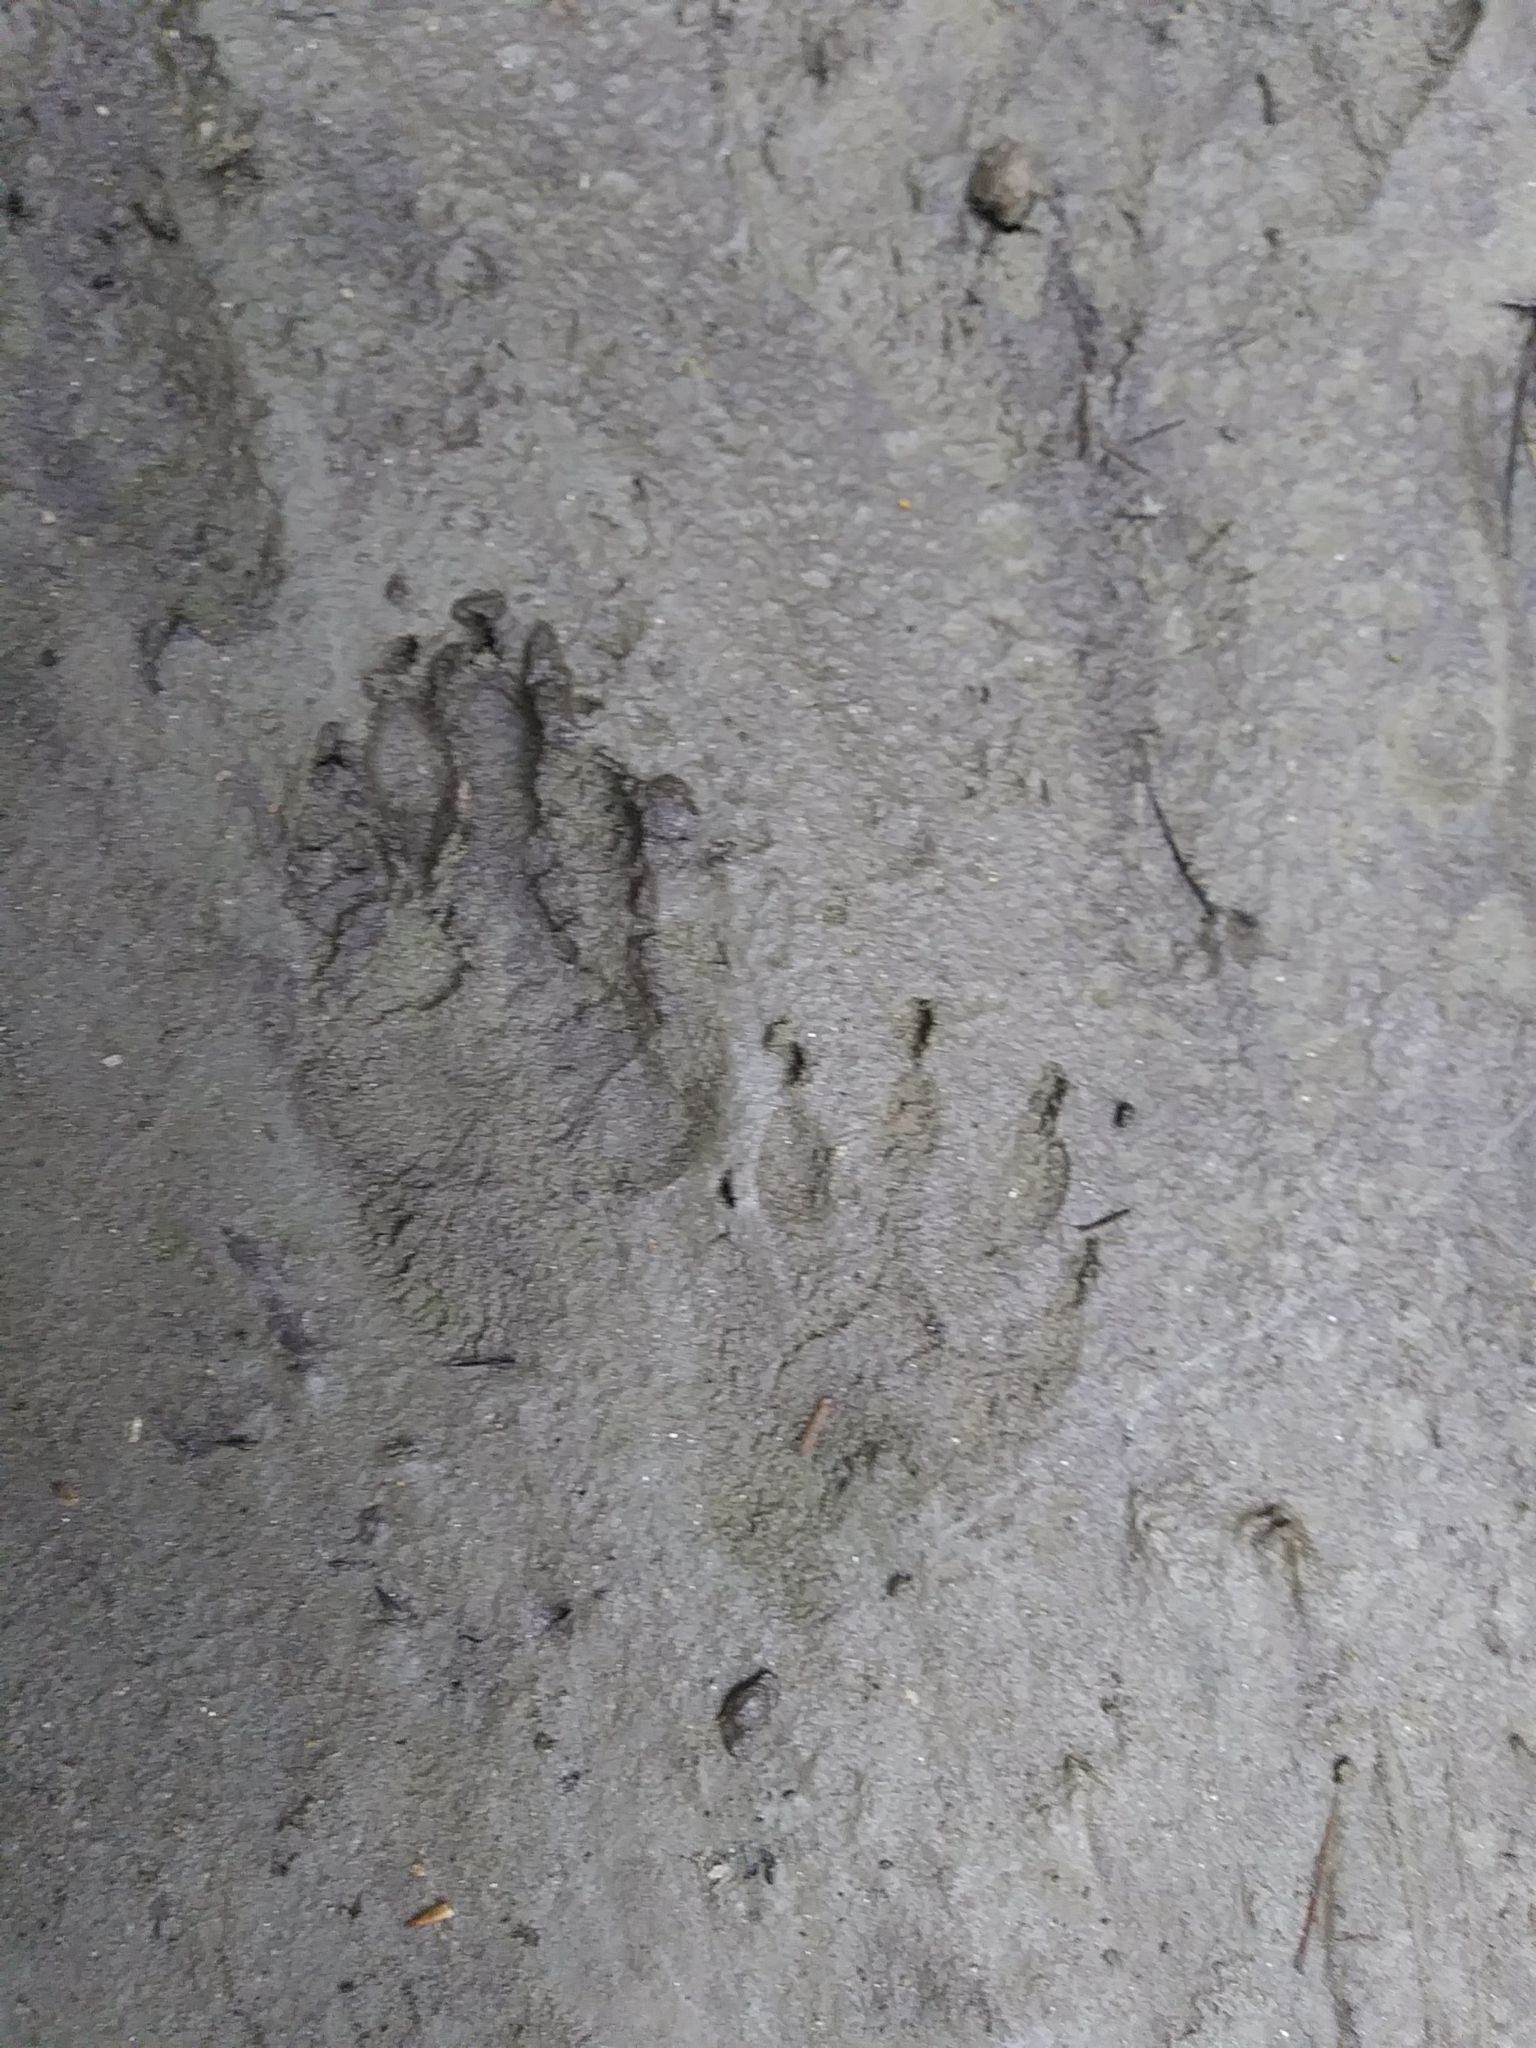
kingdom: Animalia
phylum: Chordata
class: Mammalia
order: Carnivora
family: Procyonidae
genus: Procyon
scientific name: Procyon lotor
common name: Raccoon
